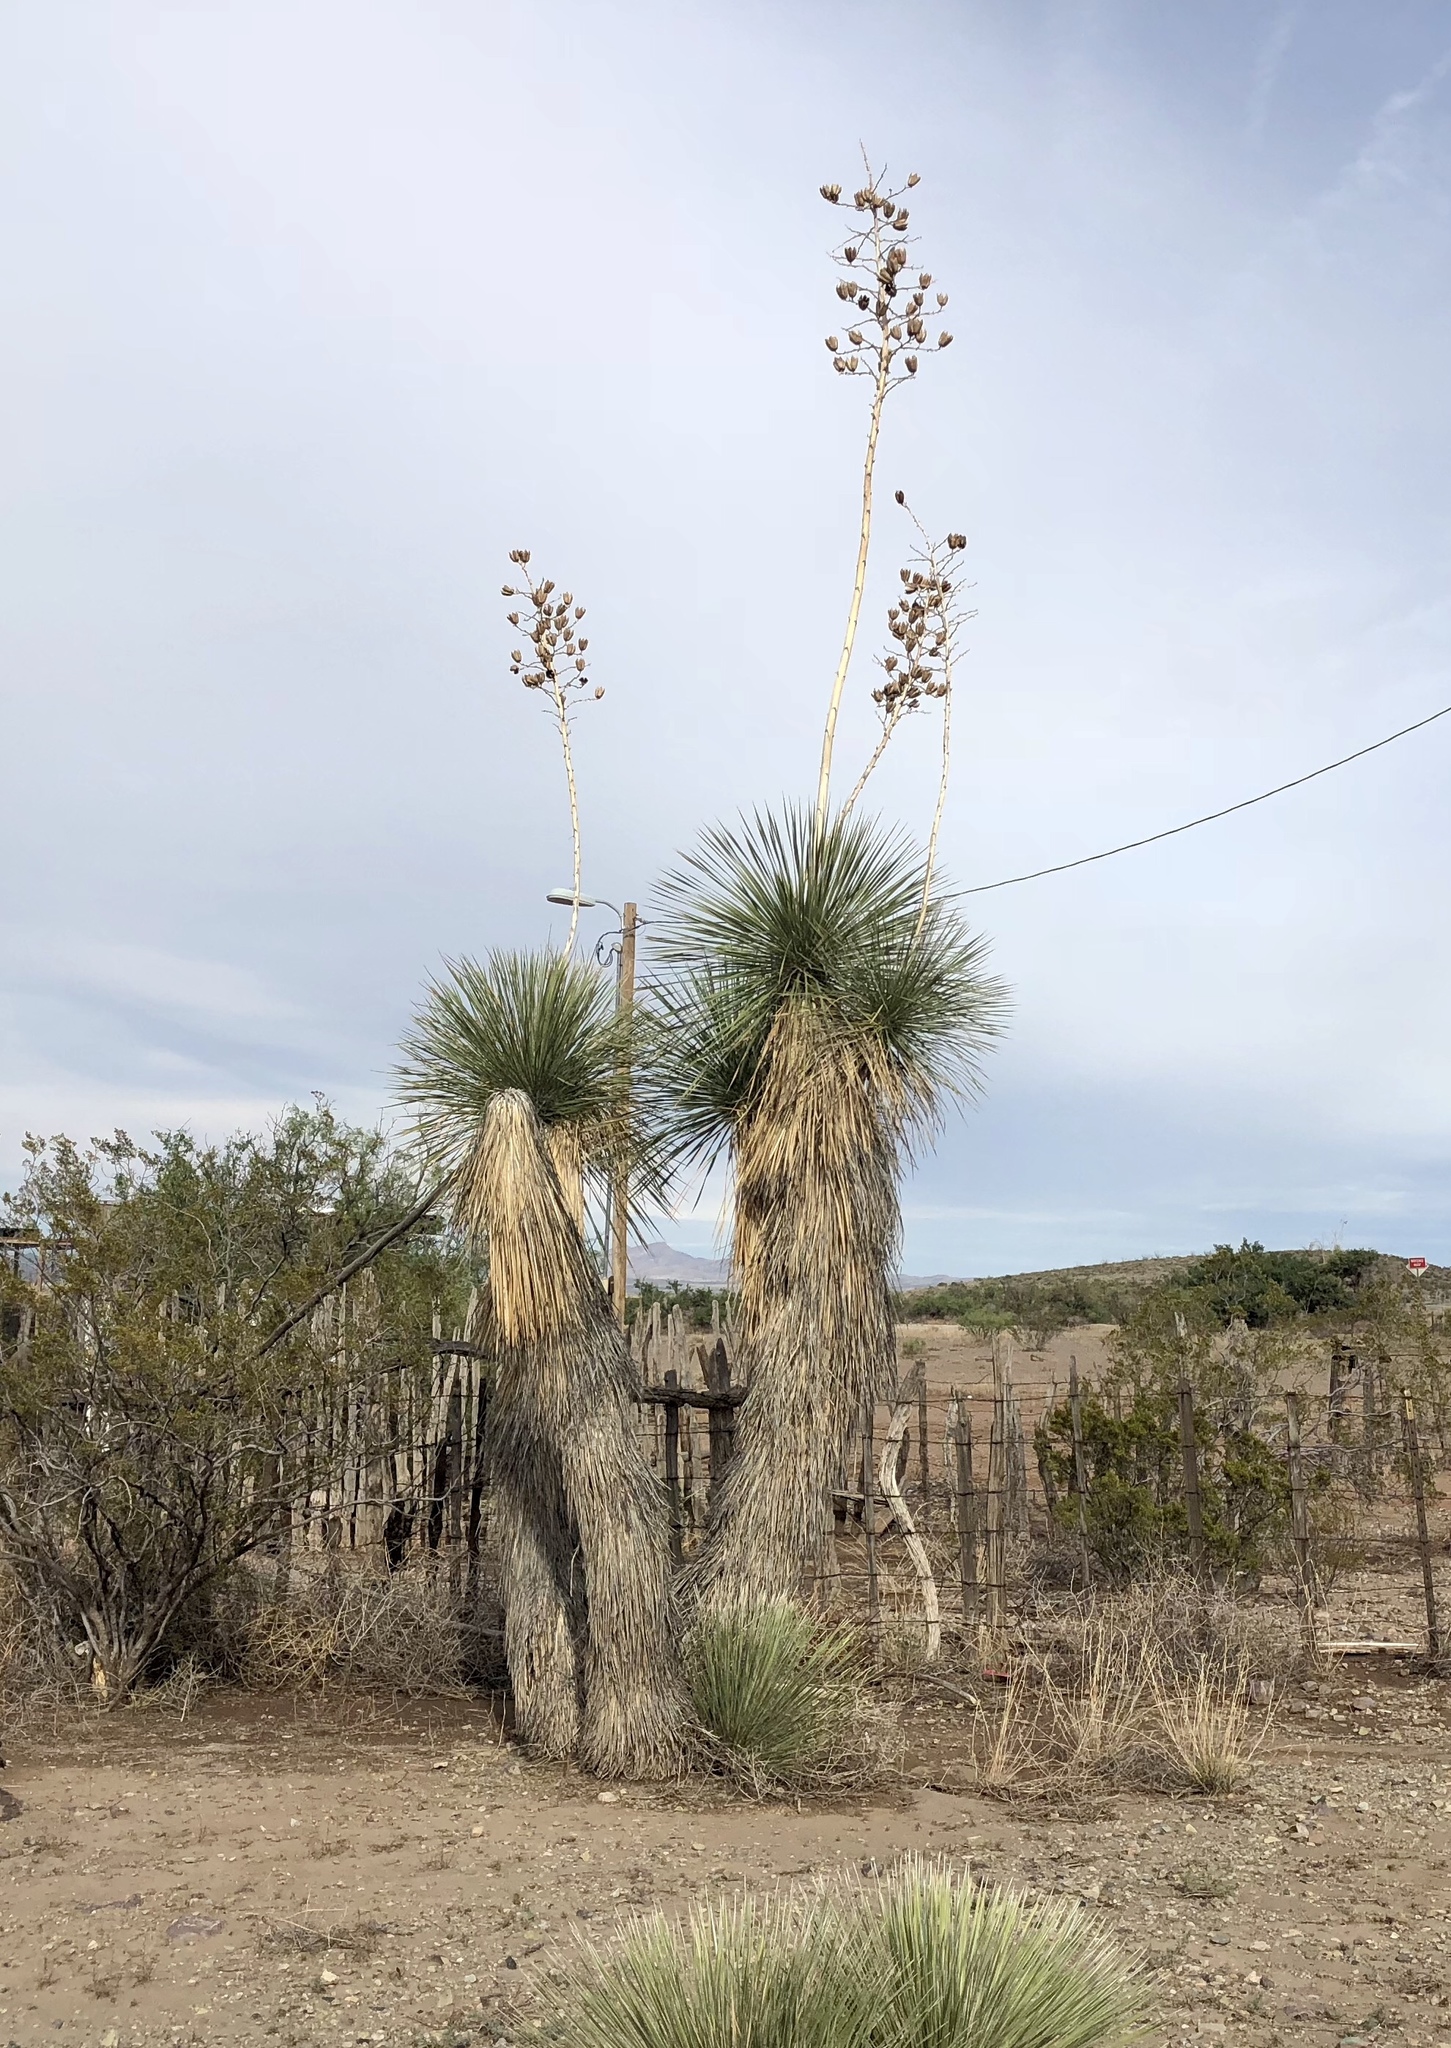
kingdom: Plantae
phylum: Tracheophyta
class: Liliopsida
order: Asparagales
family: Asparagaceae
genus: Yucca
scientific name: Yucca elata
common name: Palmella
